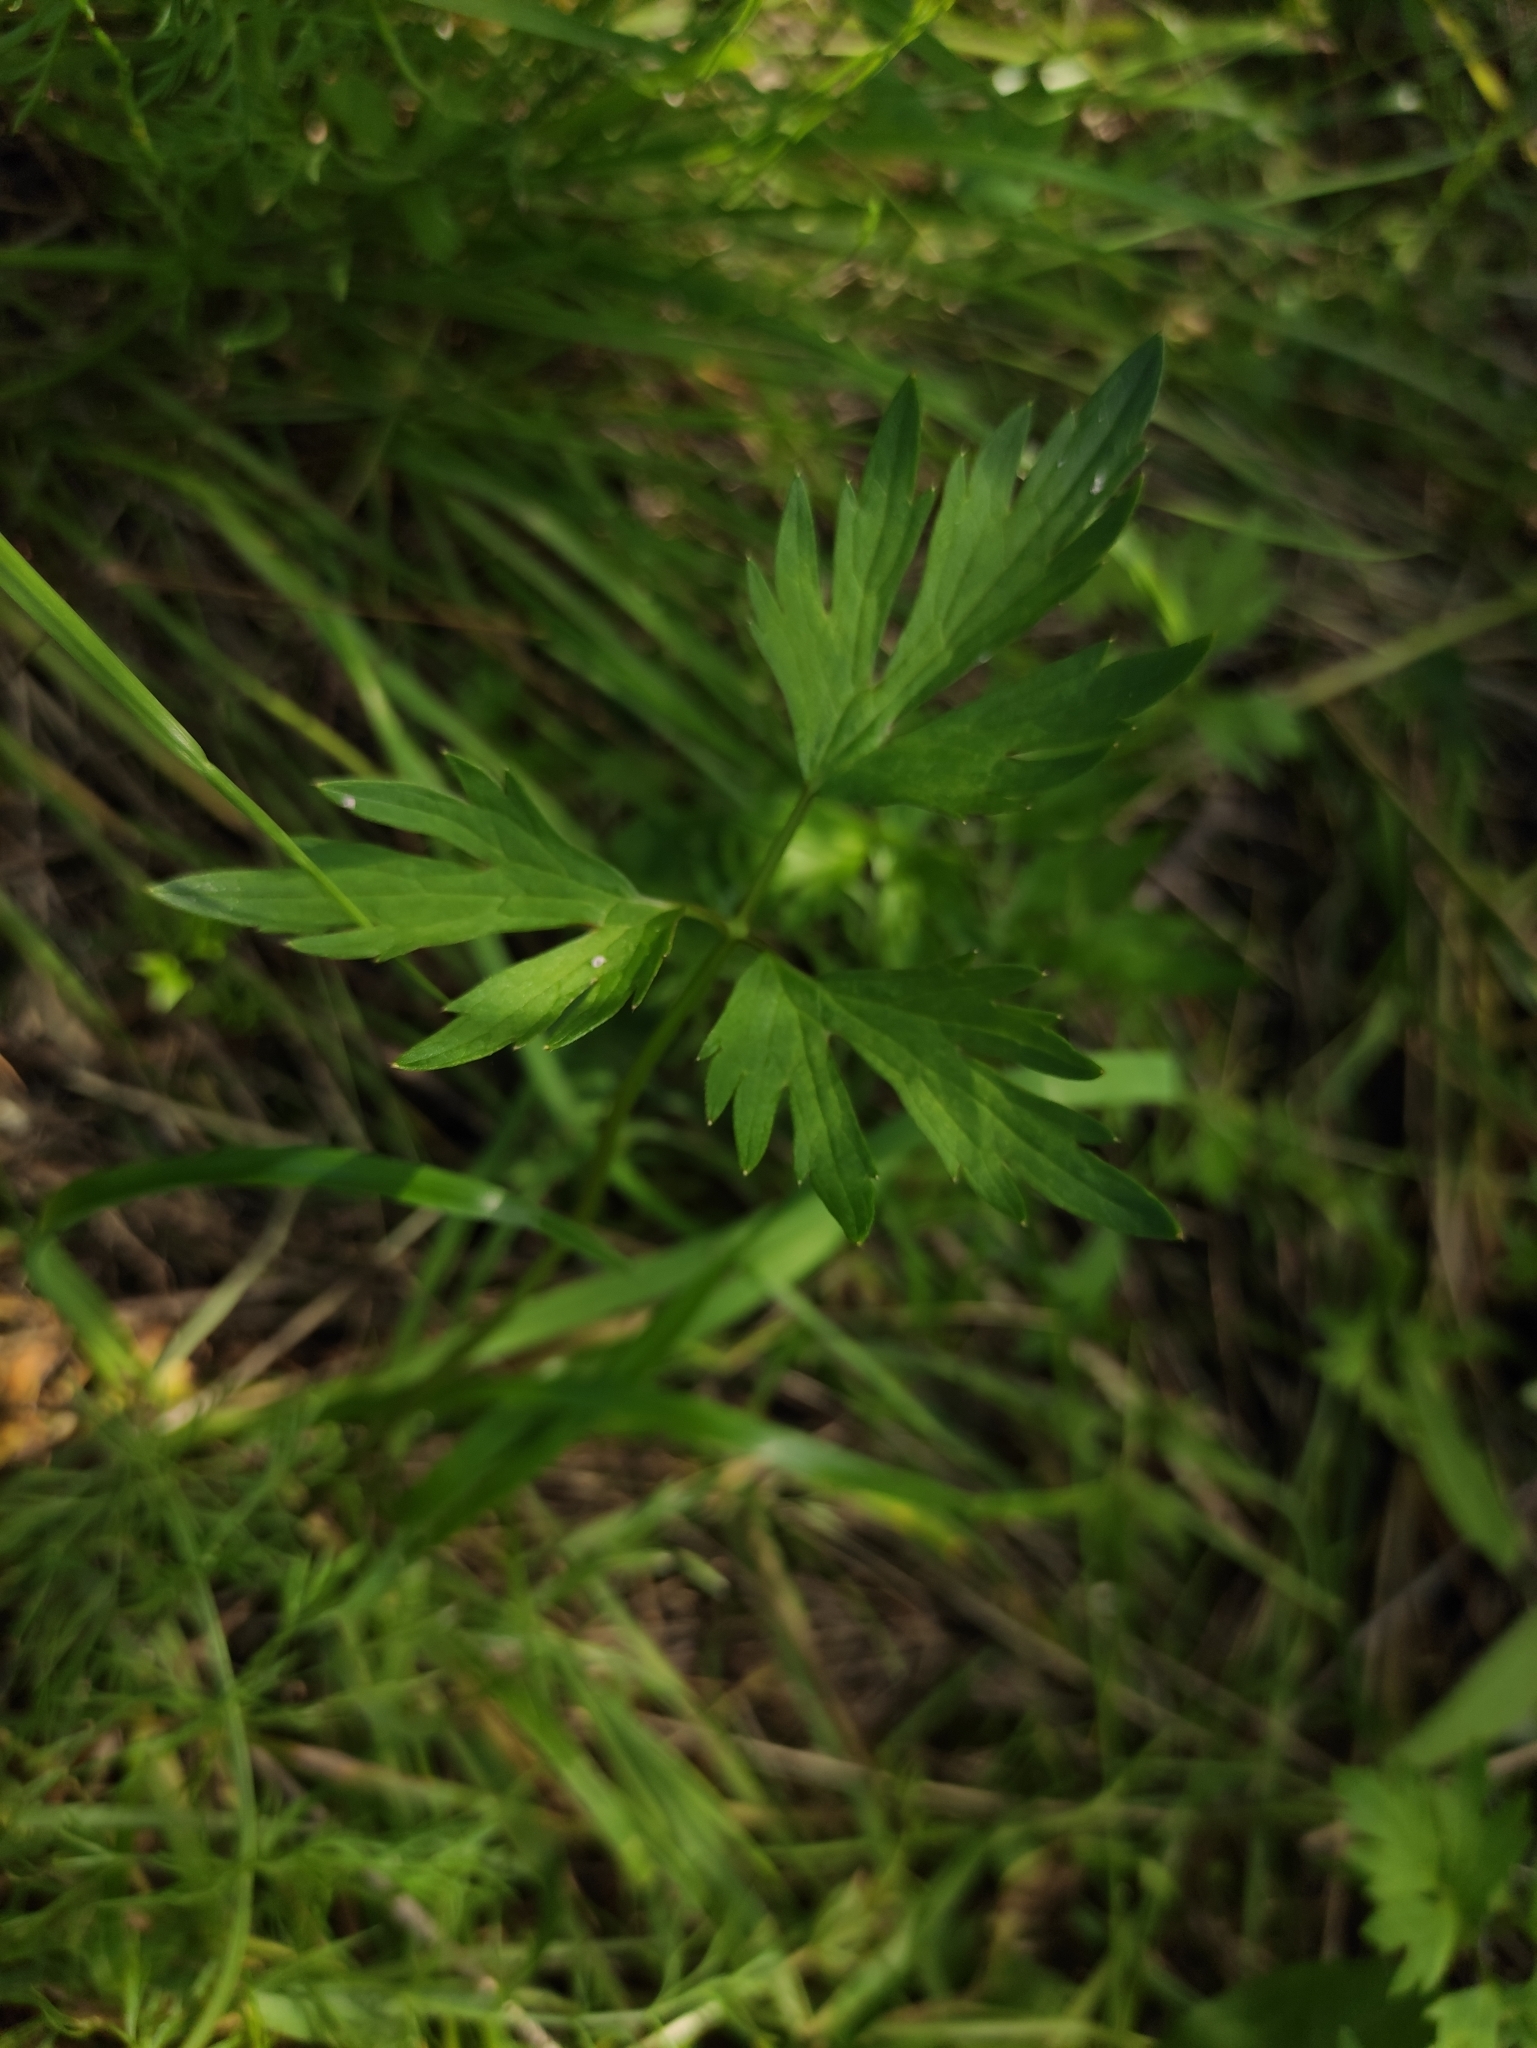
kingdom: Plantae
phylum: Tracheophyta
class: Magnoliopsida
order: Ranunculales
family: Ranunculaceae
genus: Ranunculus
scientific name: Ranunculus repens
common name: Creeping buttercup
